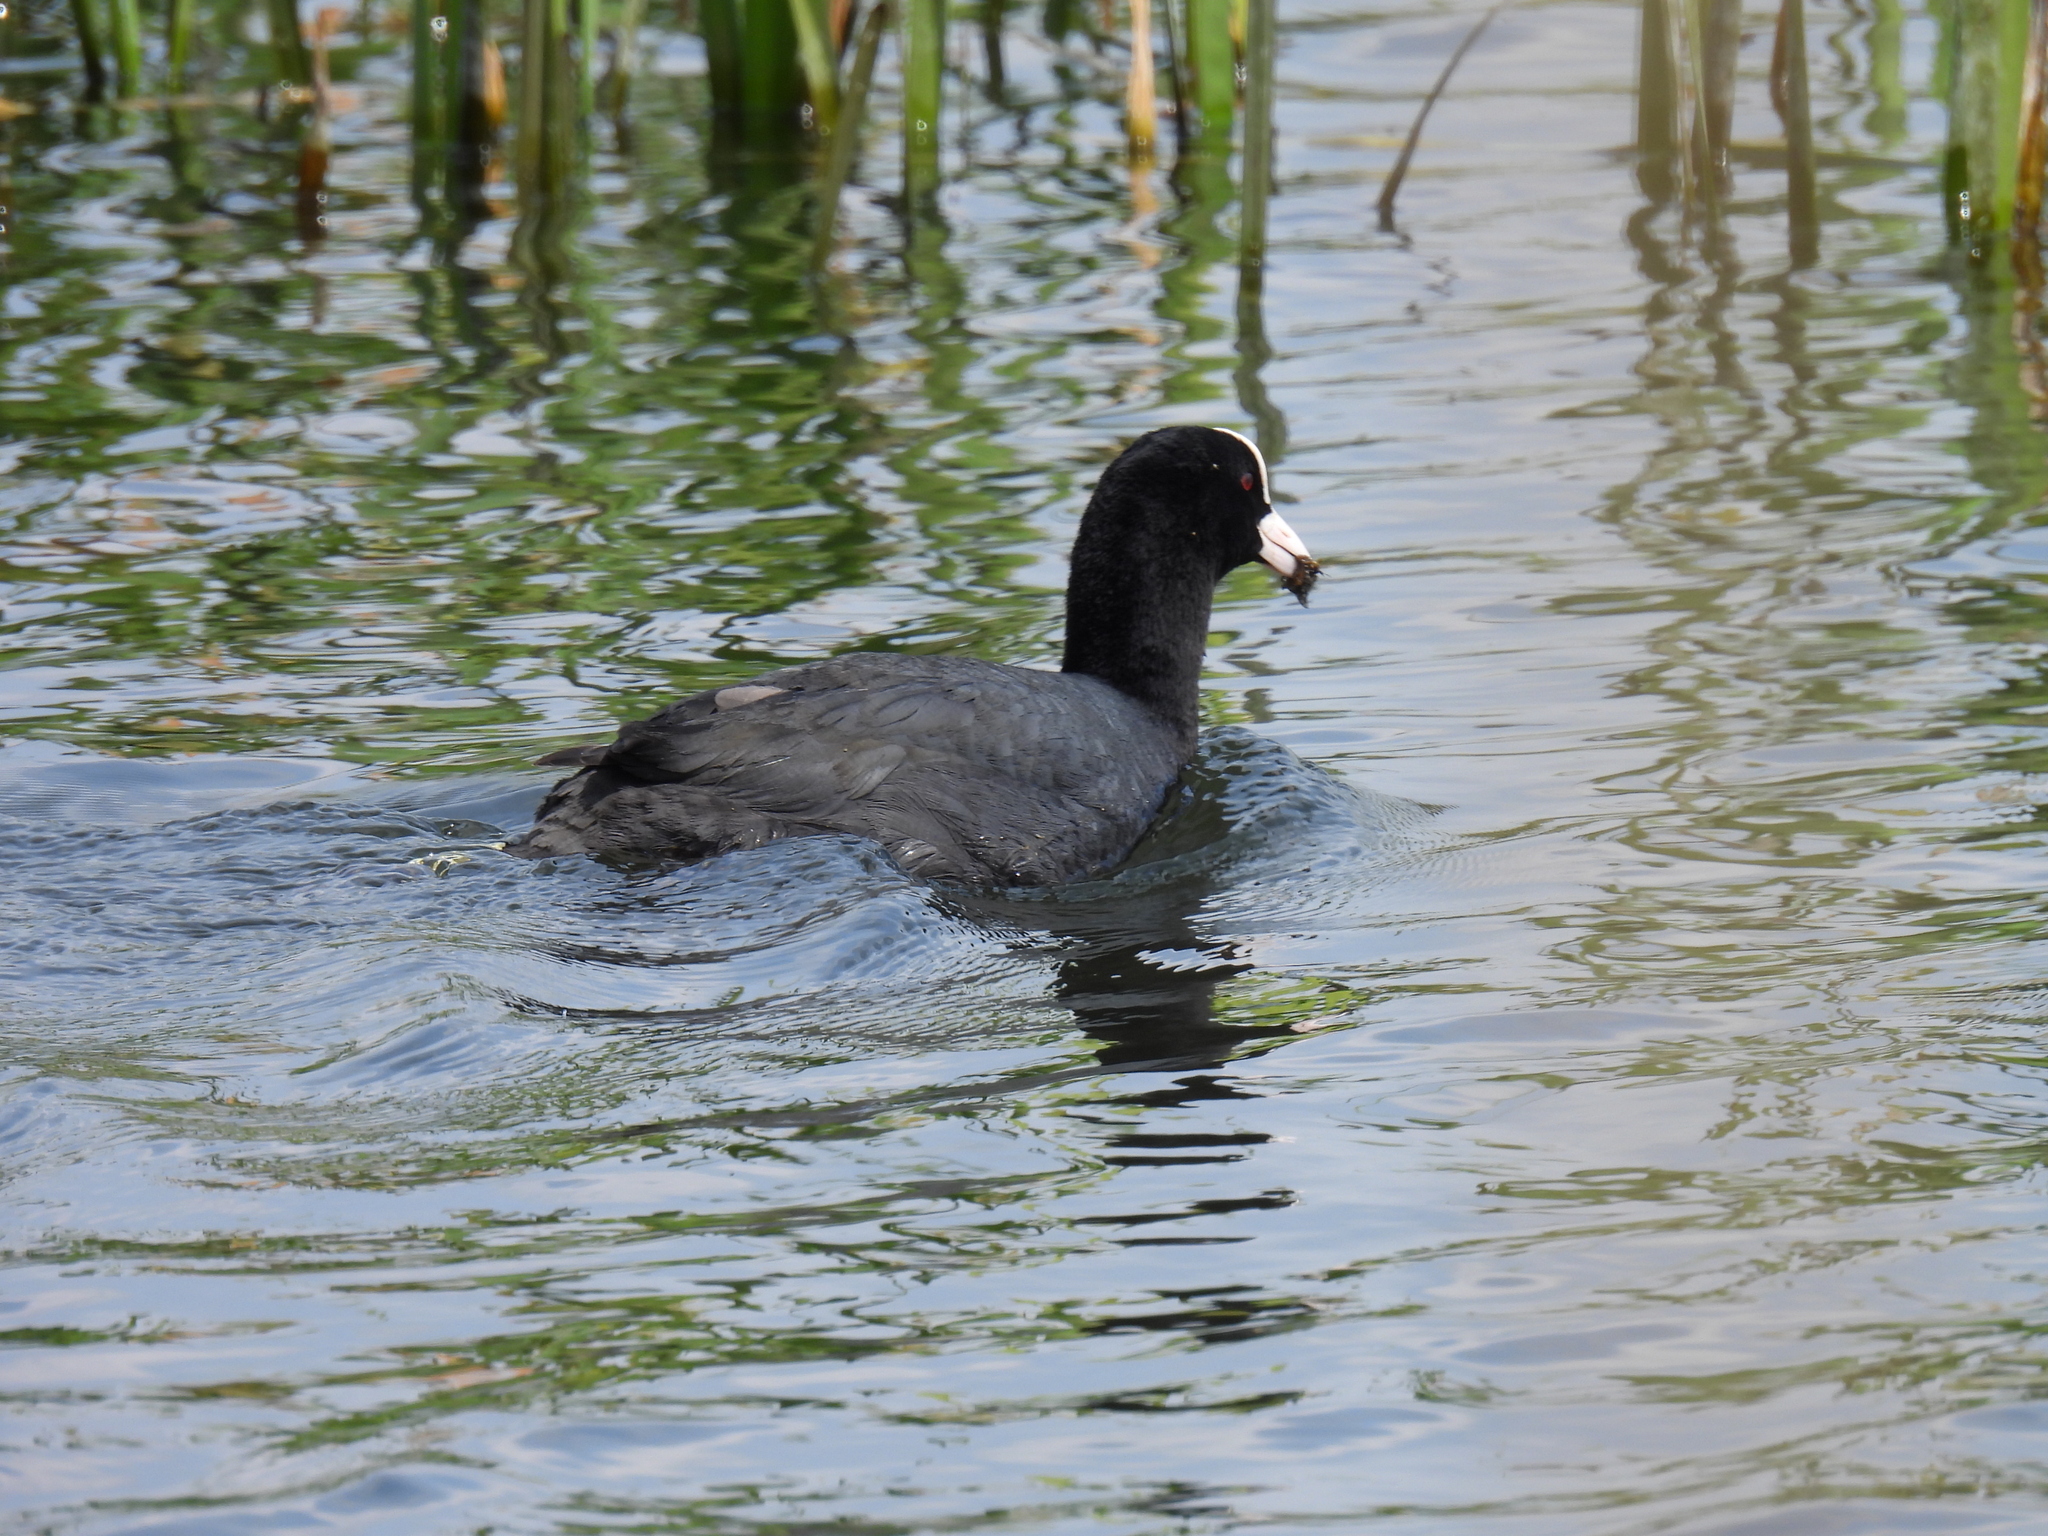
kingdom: Animalia
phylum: Chordata
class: Aves
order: Gruiformes
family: Rallidae
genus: Fulica
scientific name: Fulica atra
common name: Eurasian coot
